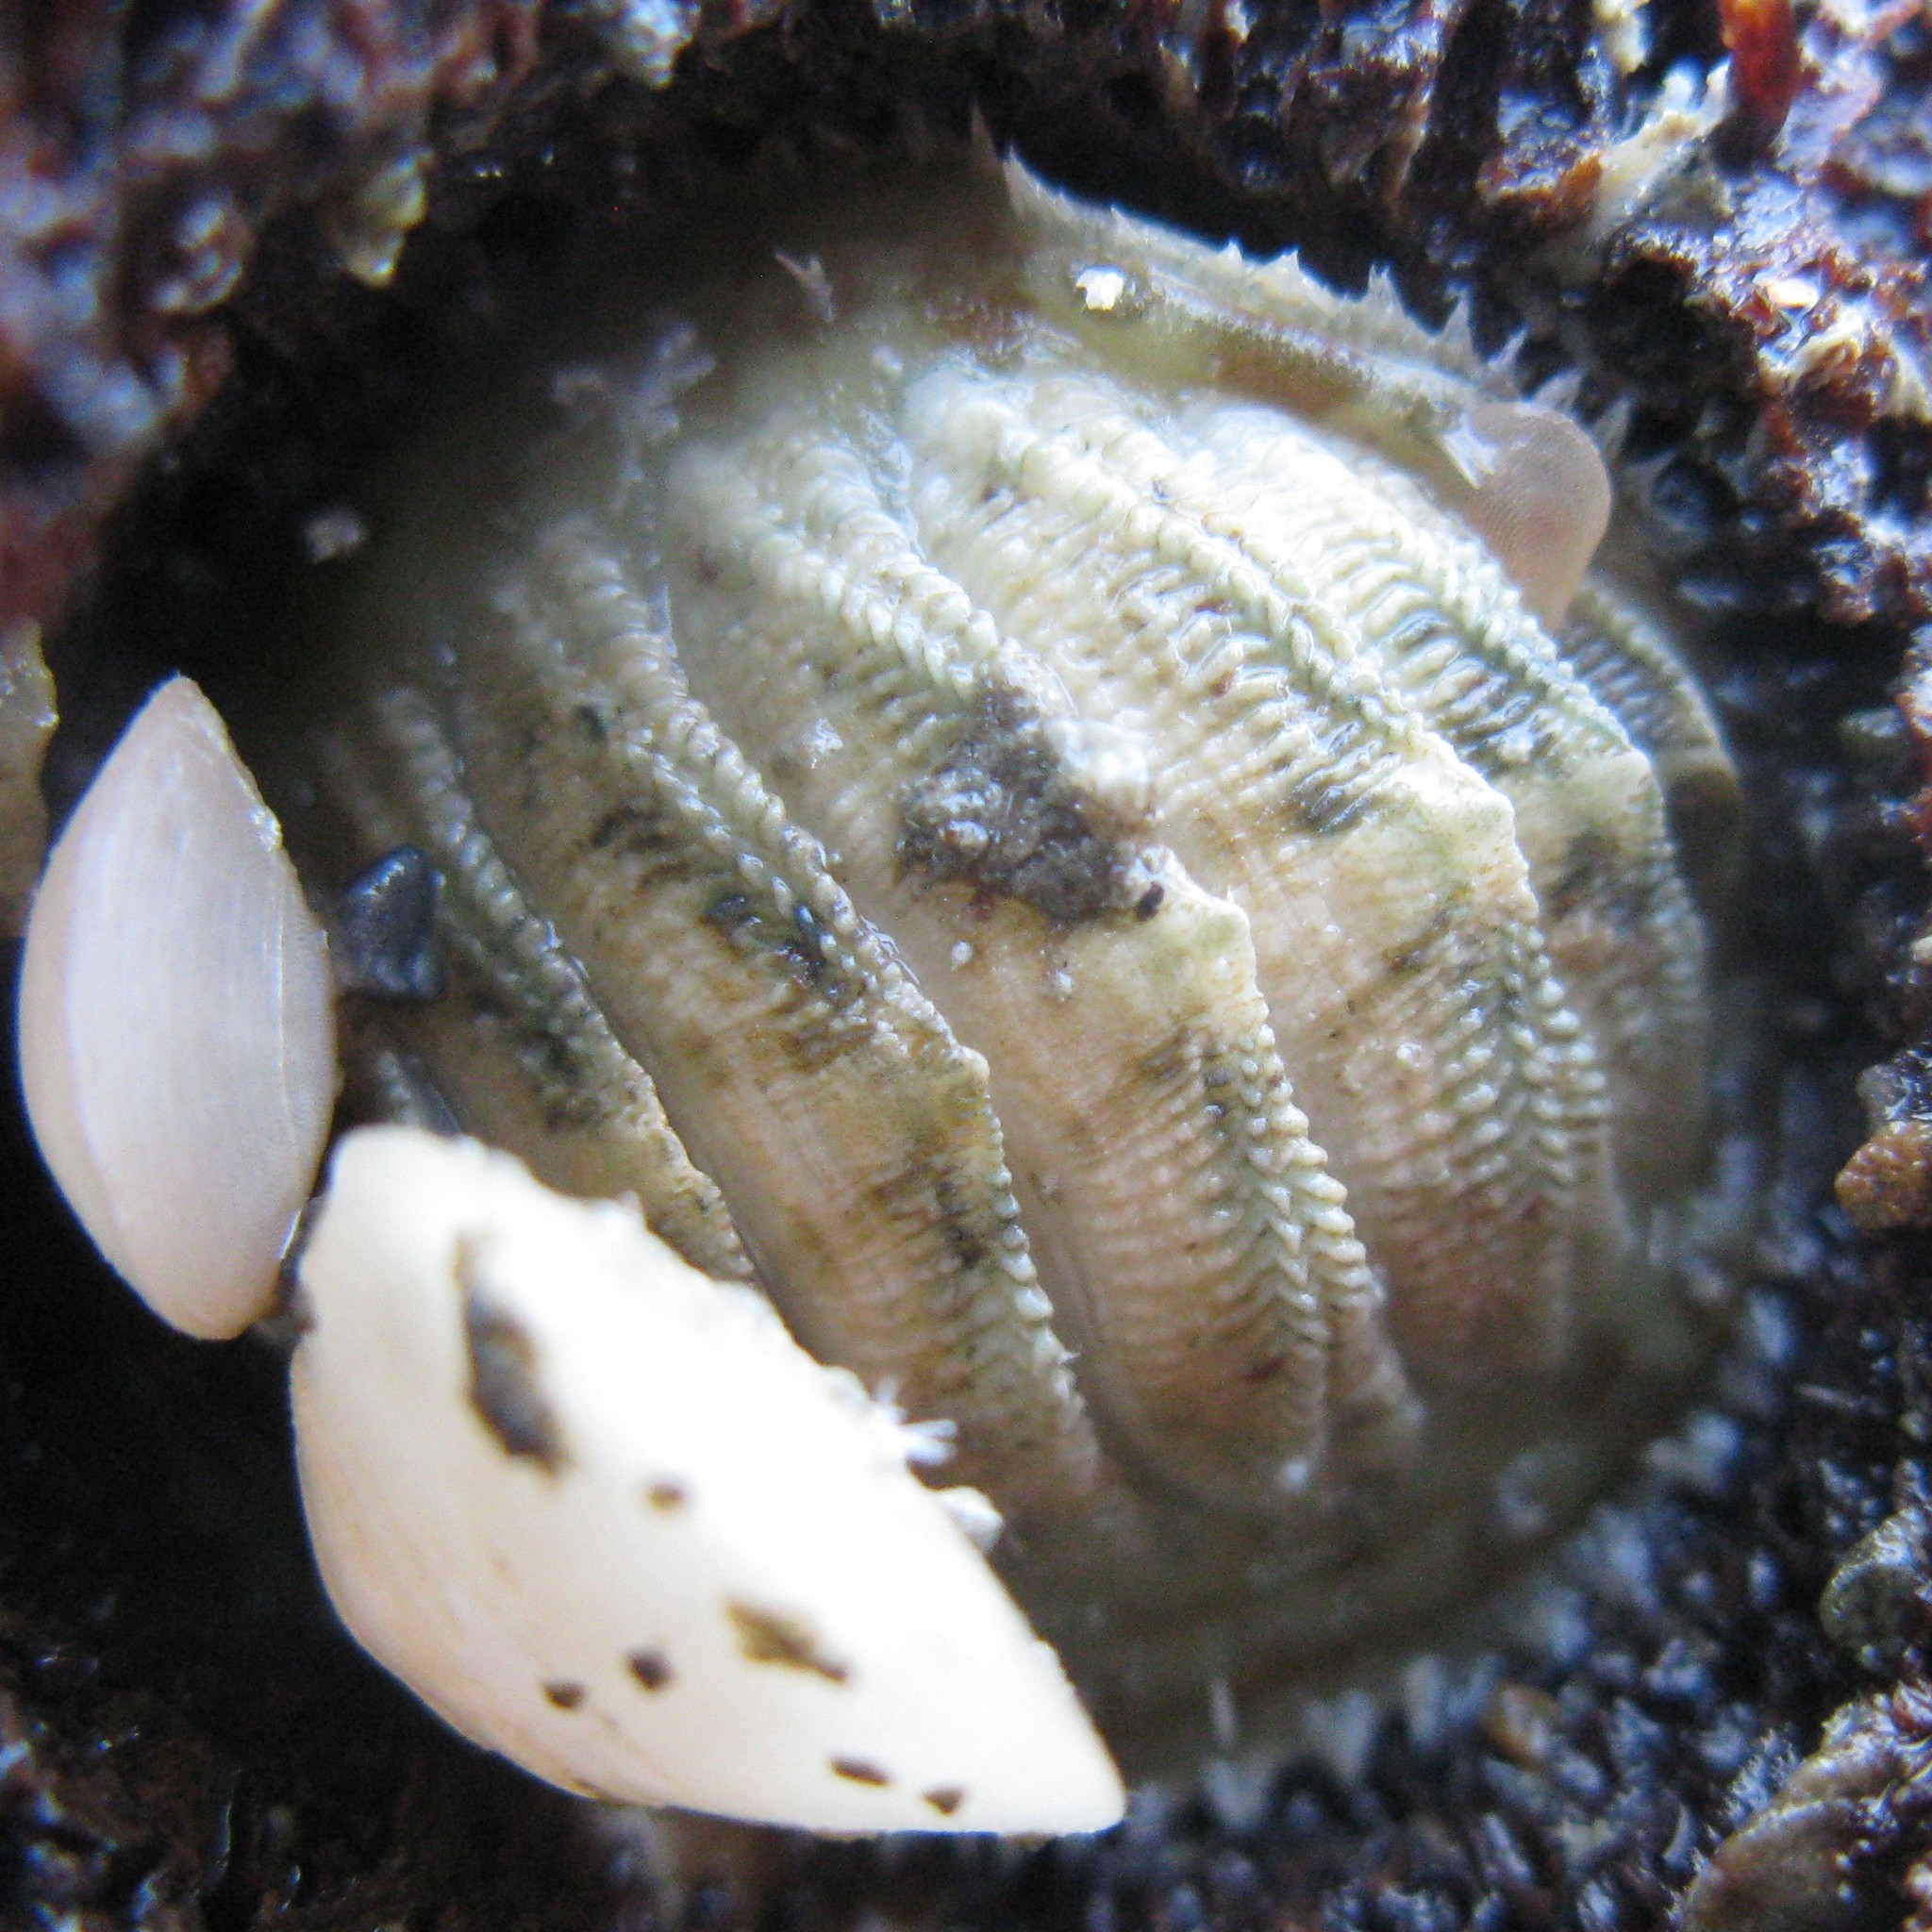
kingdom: Animalia
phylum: Mollusca
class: Polyplacophora
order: Chitonida
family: Mopaliidae
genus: Plaxiphora
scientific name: Plaxiphora egregia
